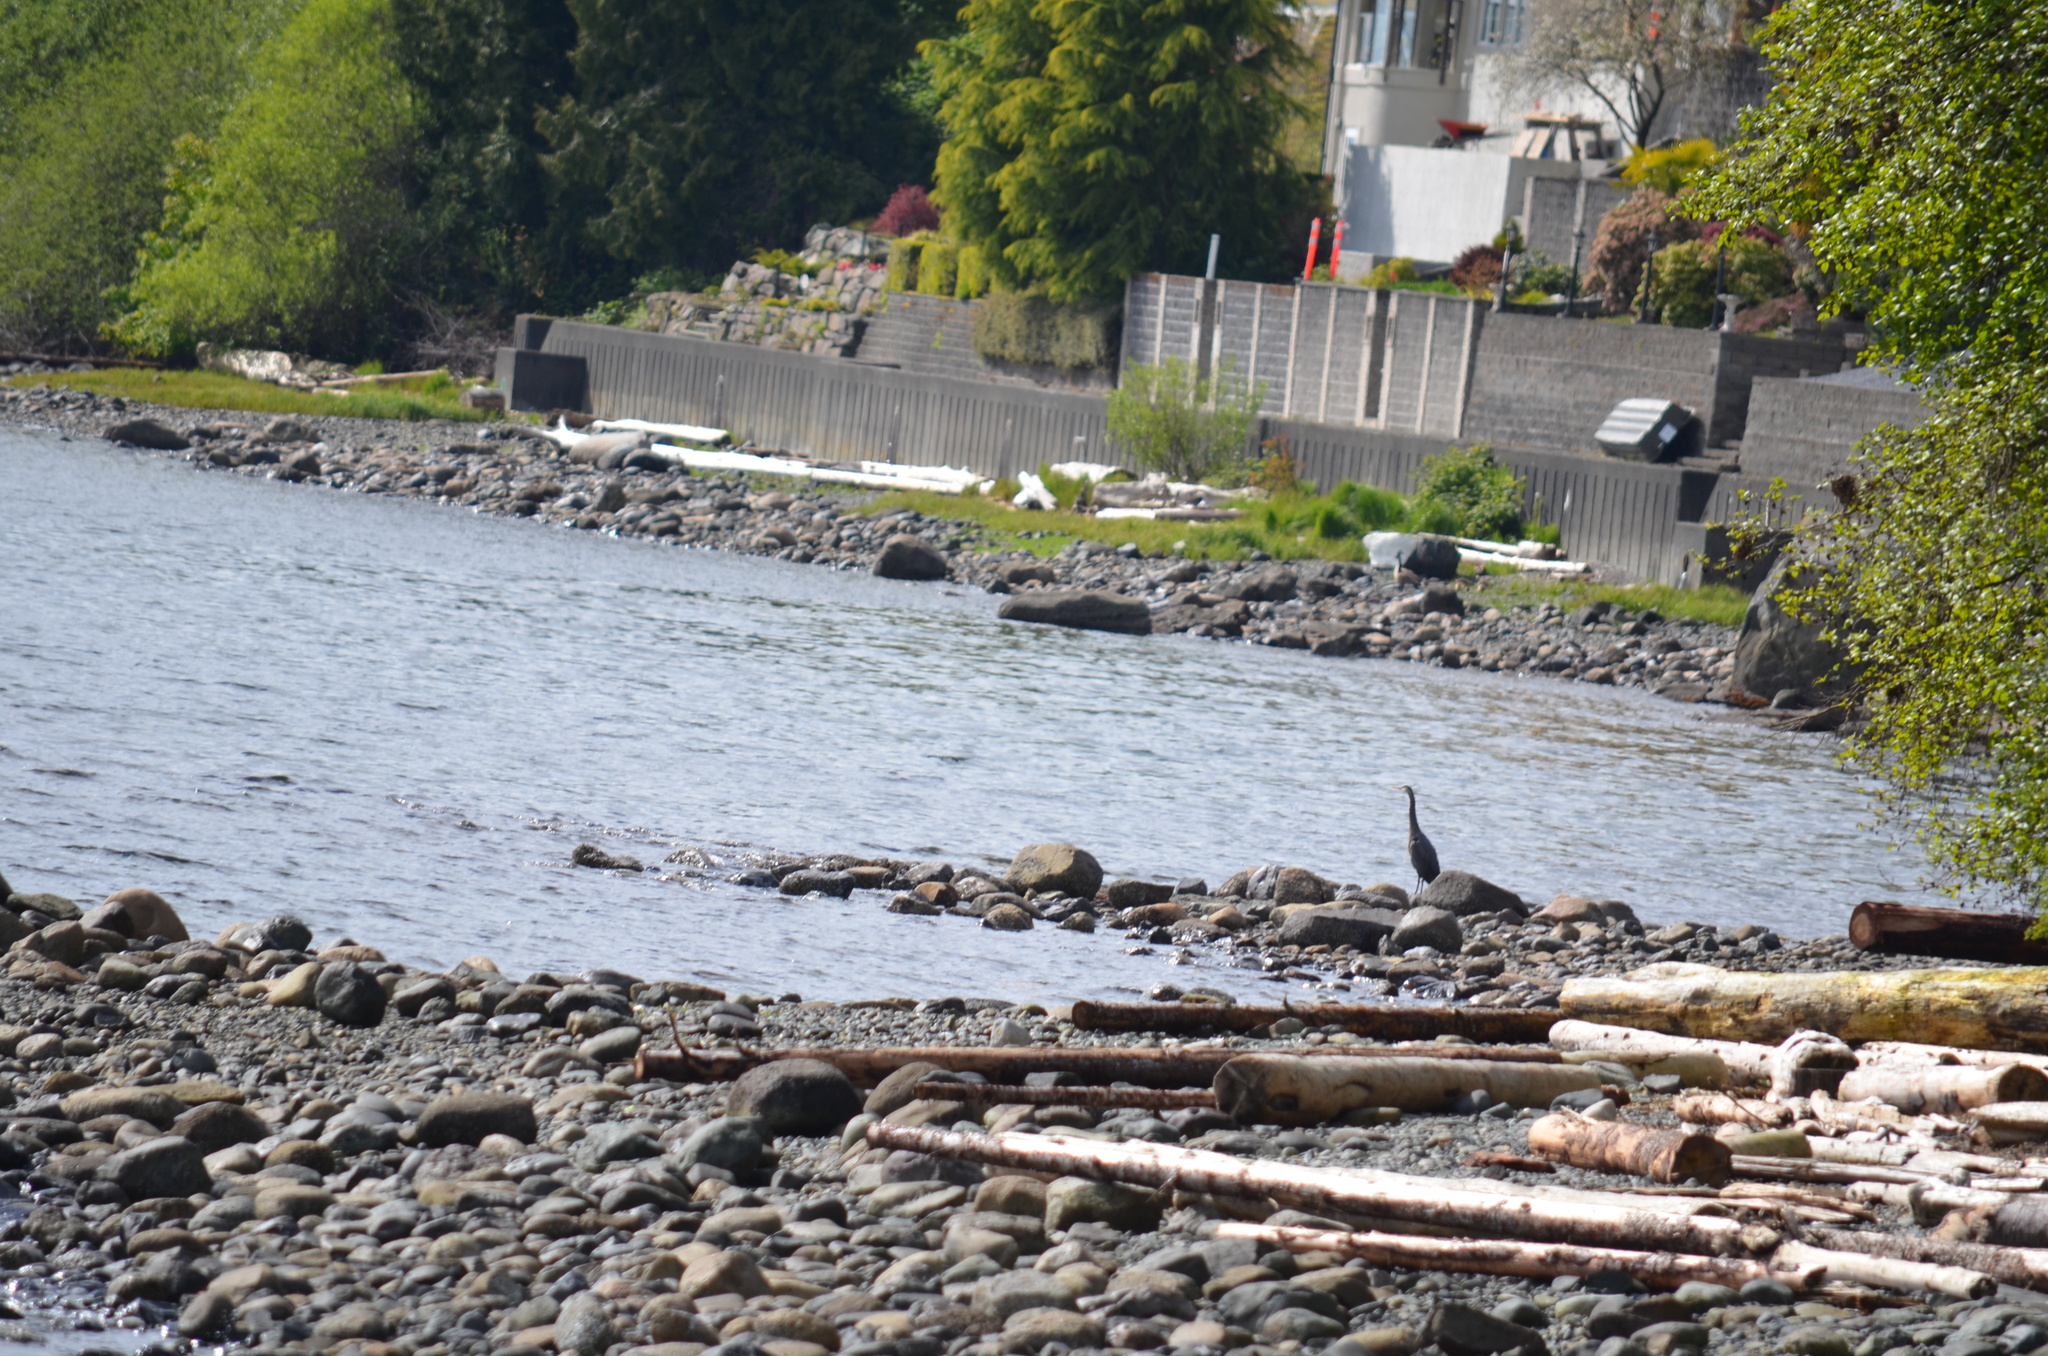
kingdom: Animalia
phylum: Chordata
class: Aves
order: Pelecaniformes
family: Ardeidae
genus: Ardea
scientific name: Ardea herodias
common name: Great blue heron
